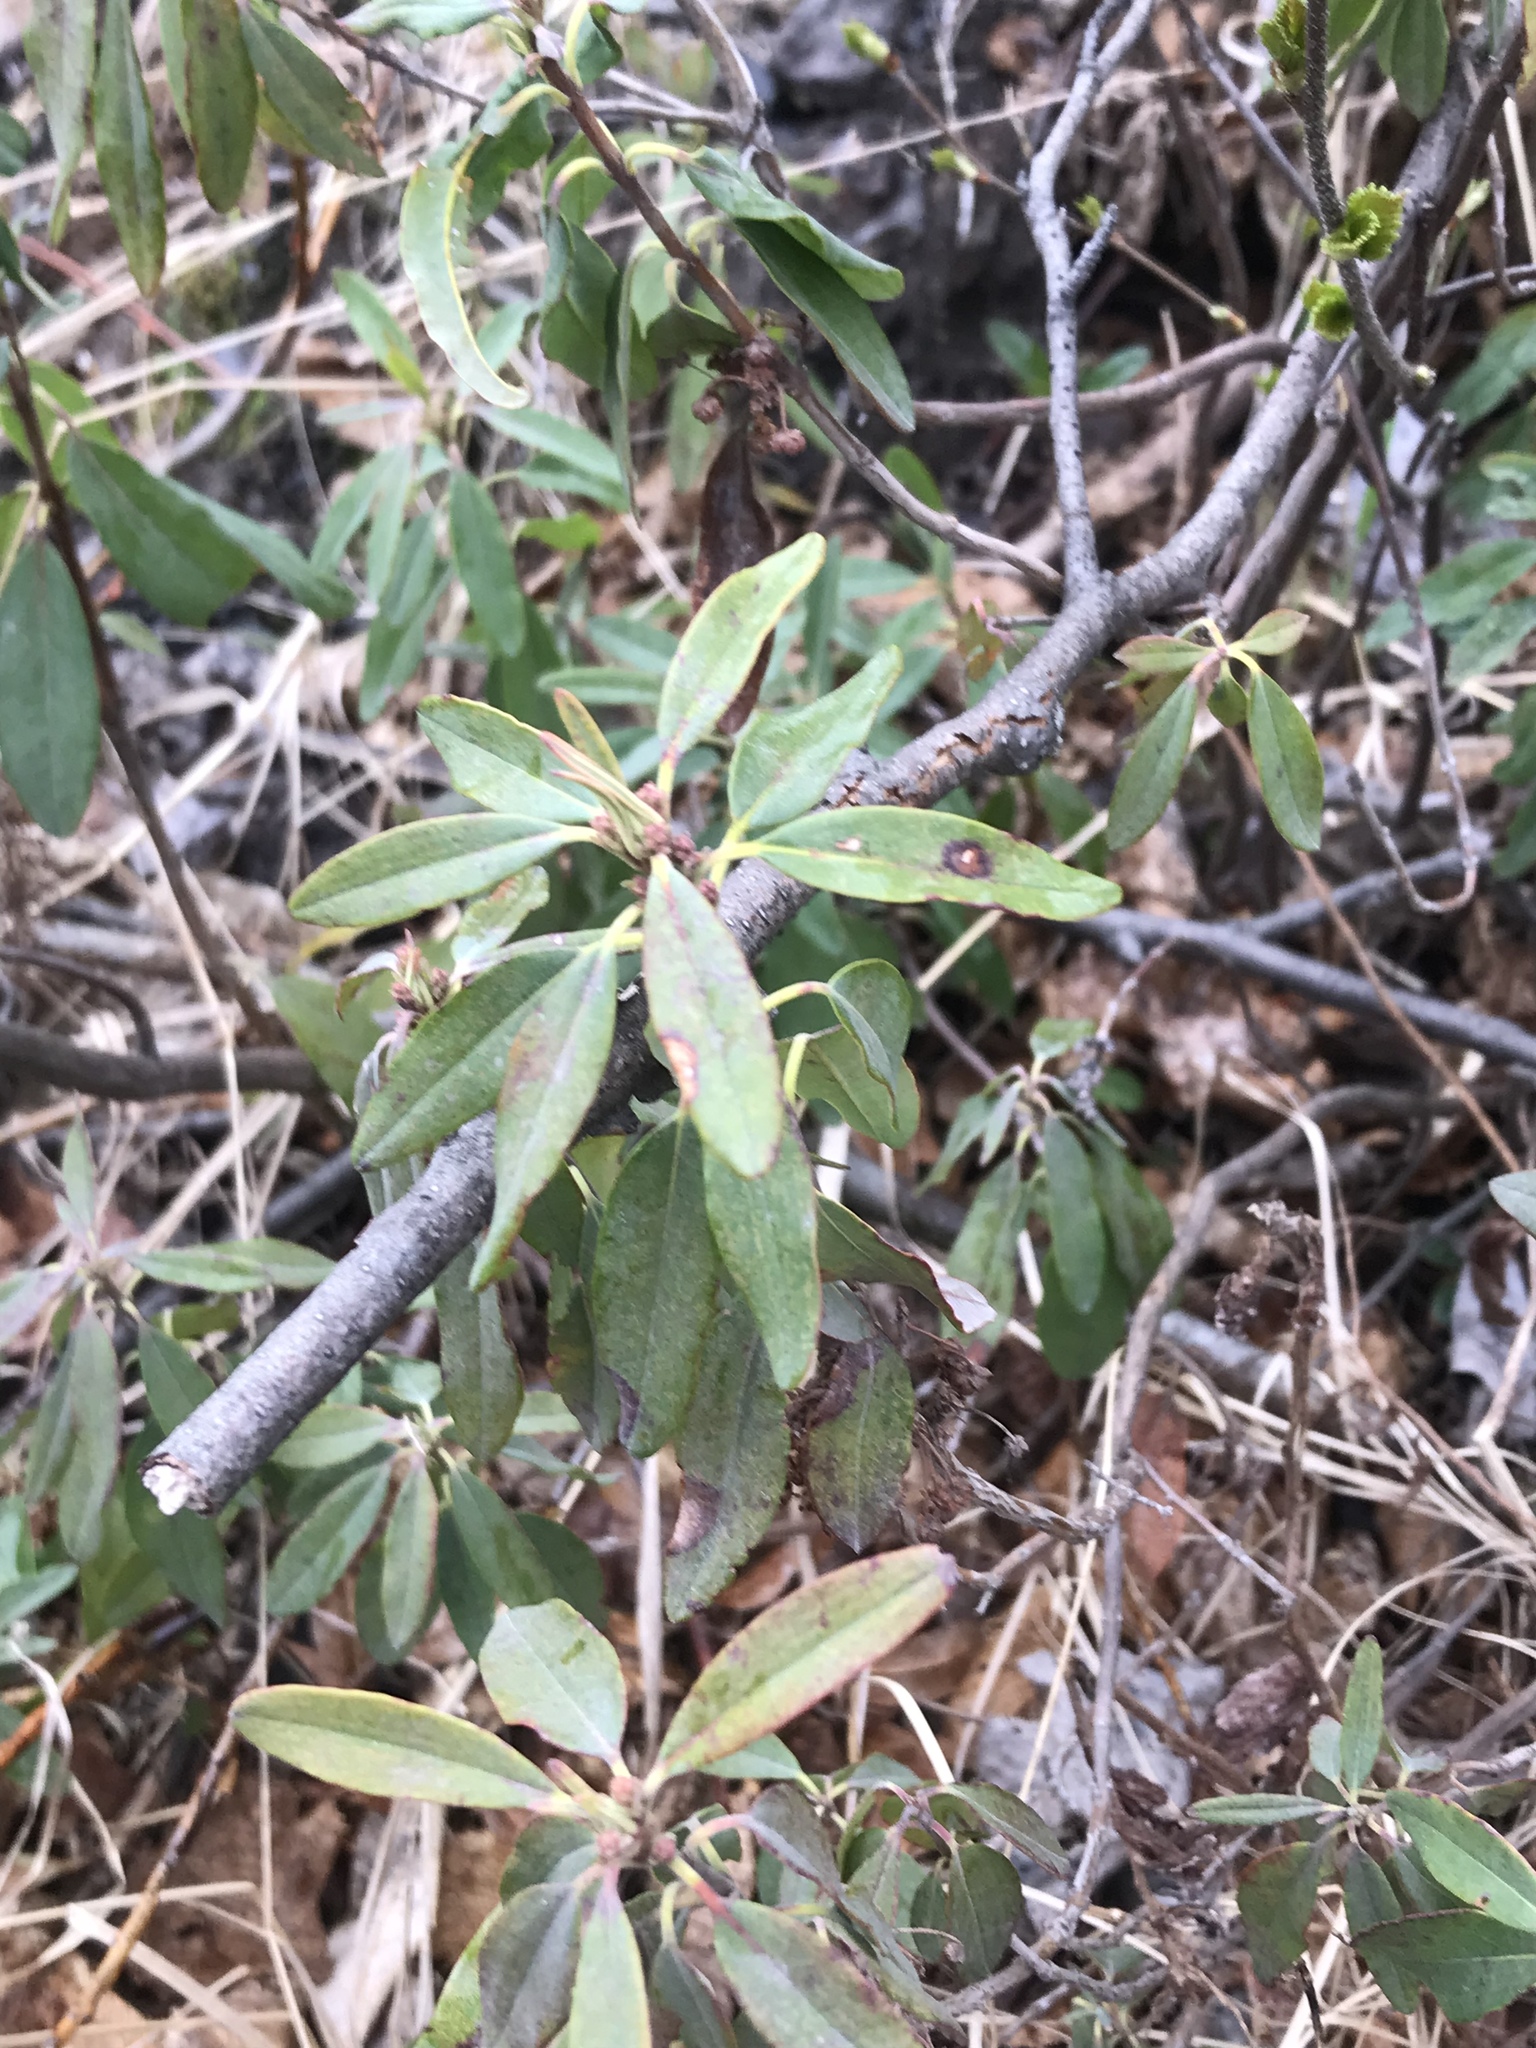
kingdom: Plantae
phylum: Tracheophyta
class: Magnoliopsida
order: Ericales
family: Ericaceae
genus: Kalmia
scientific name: Kalmia angustifolia
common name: Sheep-laurel
